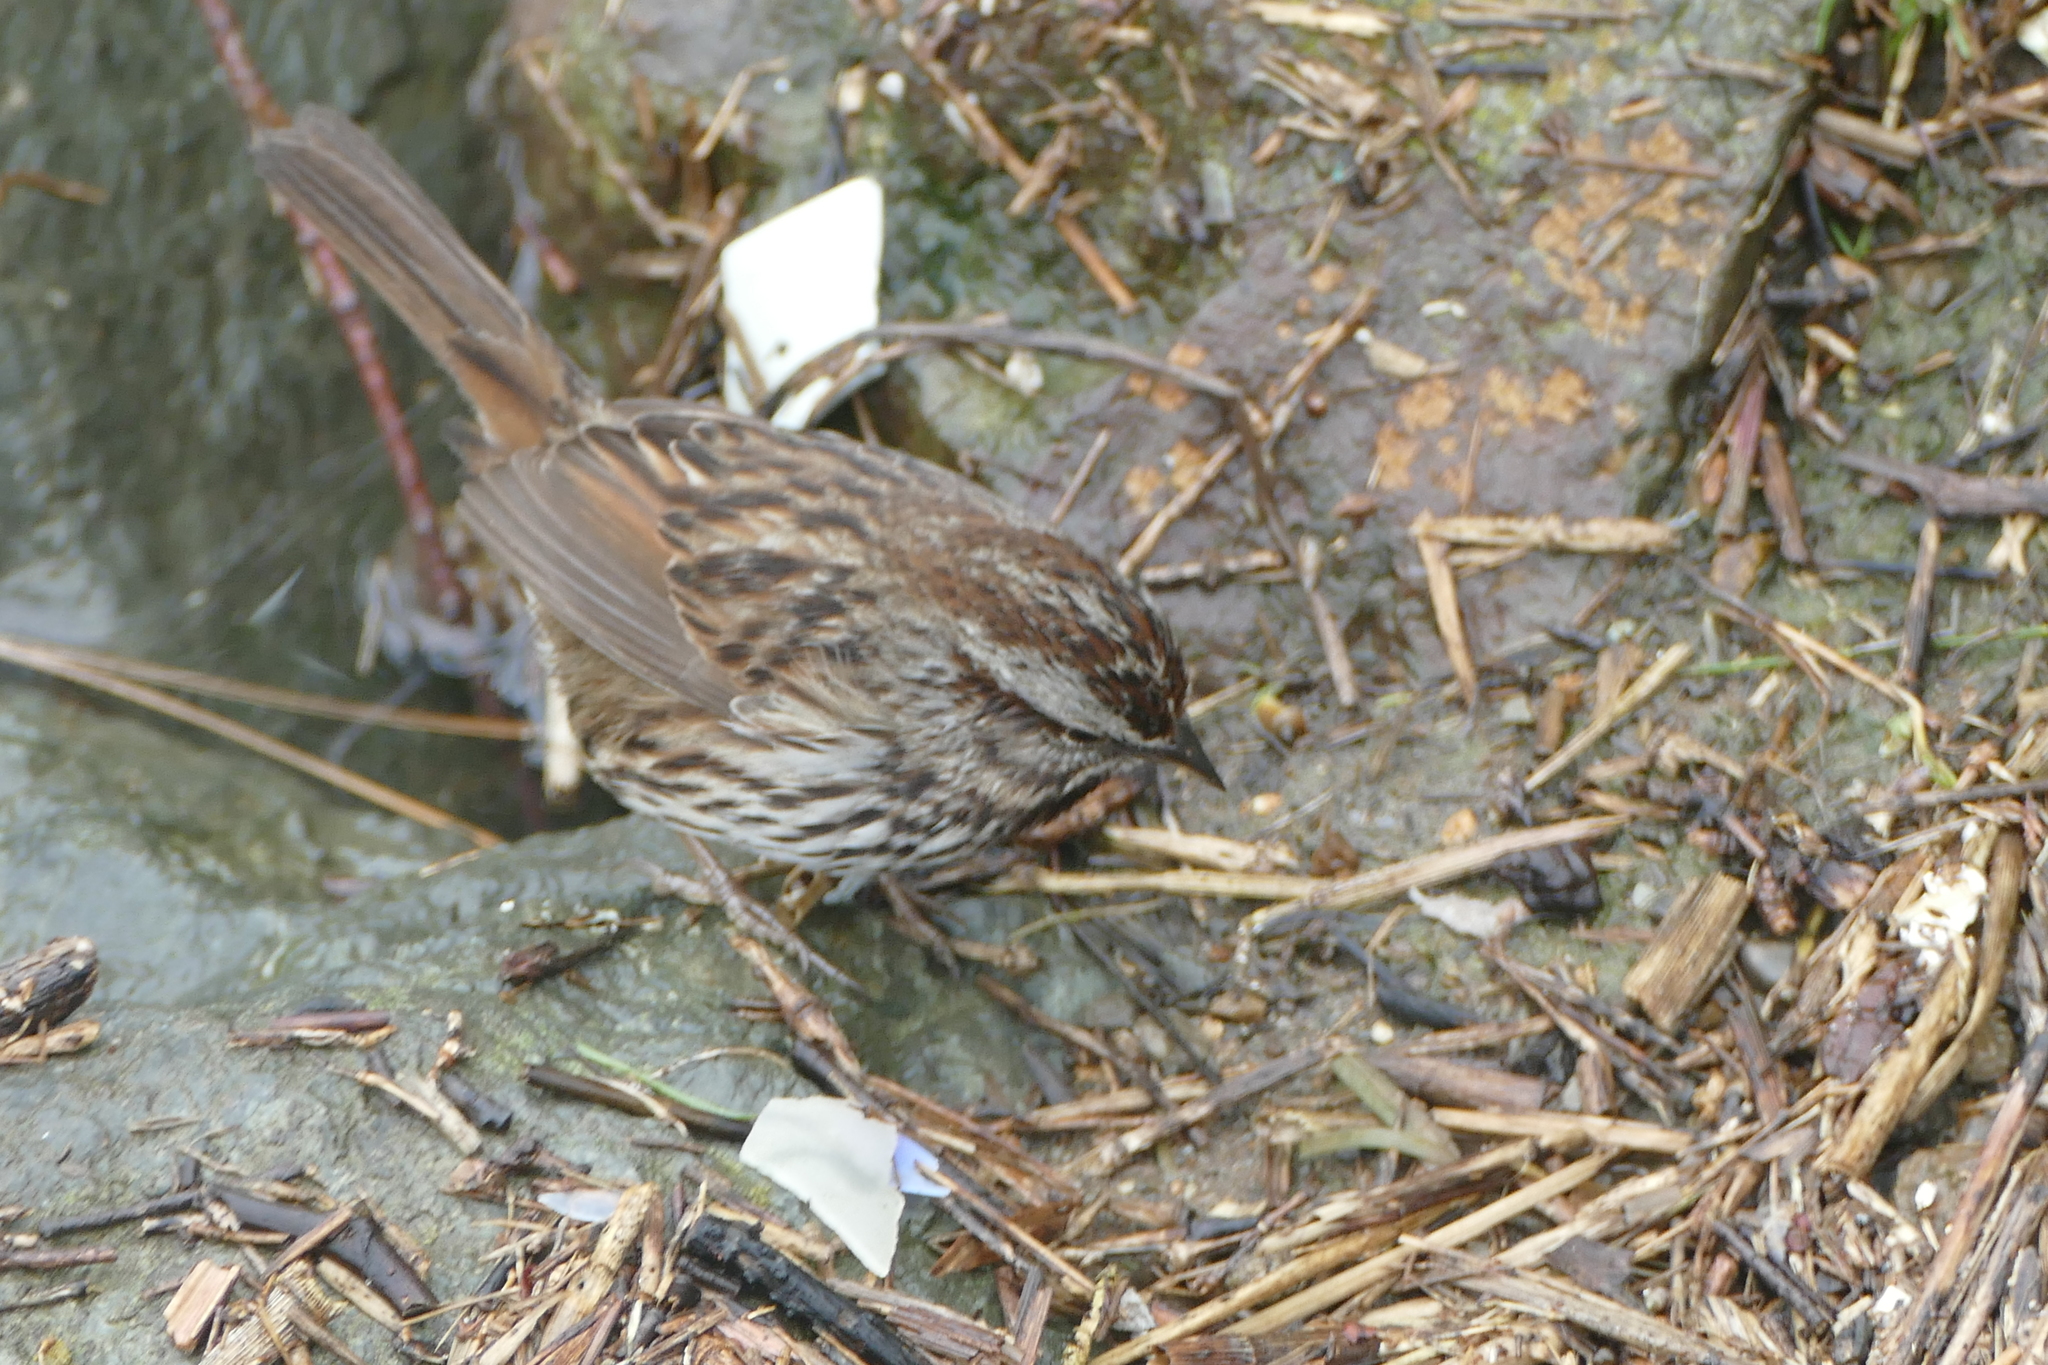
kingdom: Animalia
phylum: Chordata
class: Aves
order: Passeriformes
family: Passerellidae
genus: Melospiza
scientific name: Melospiza melodia
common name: Song sparrow
